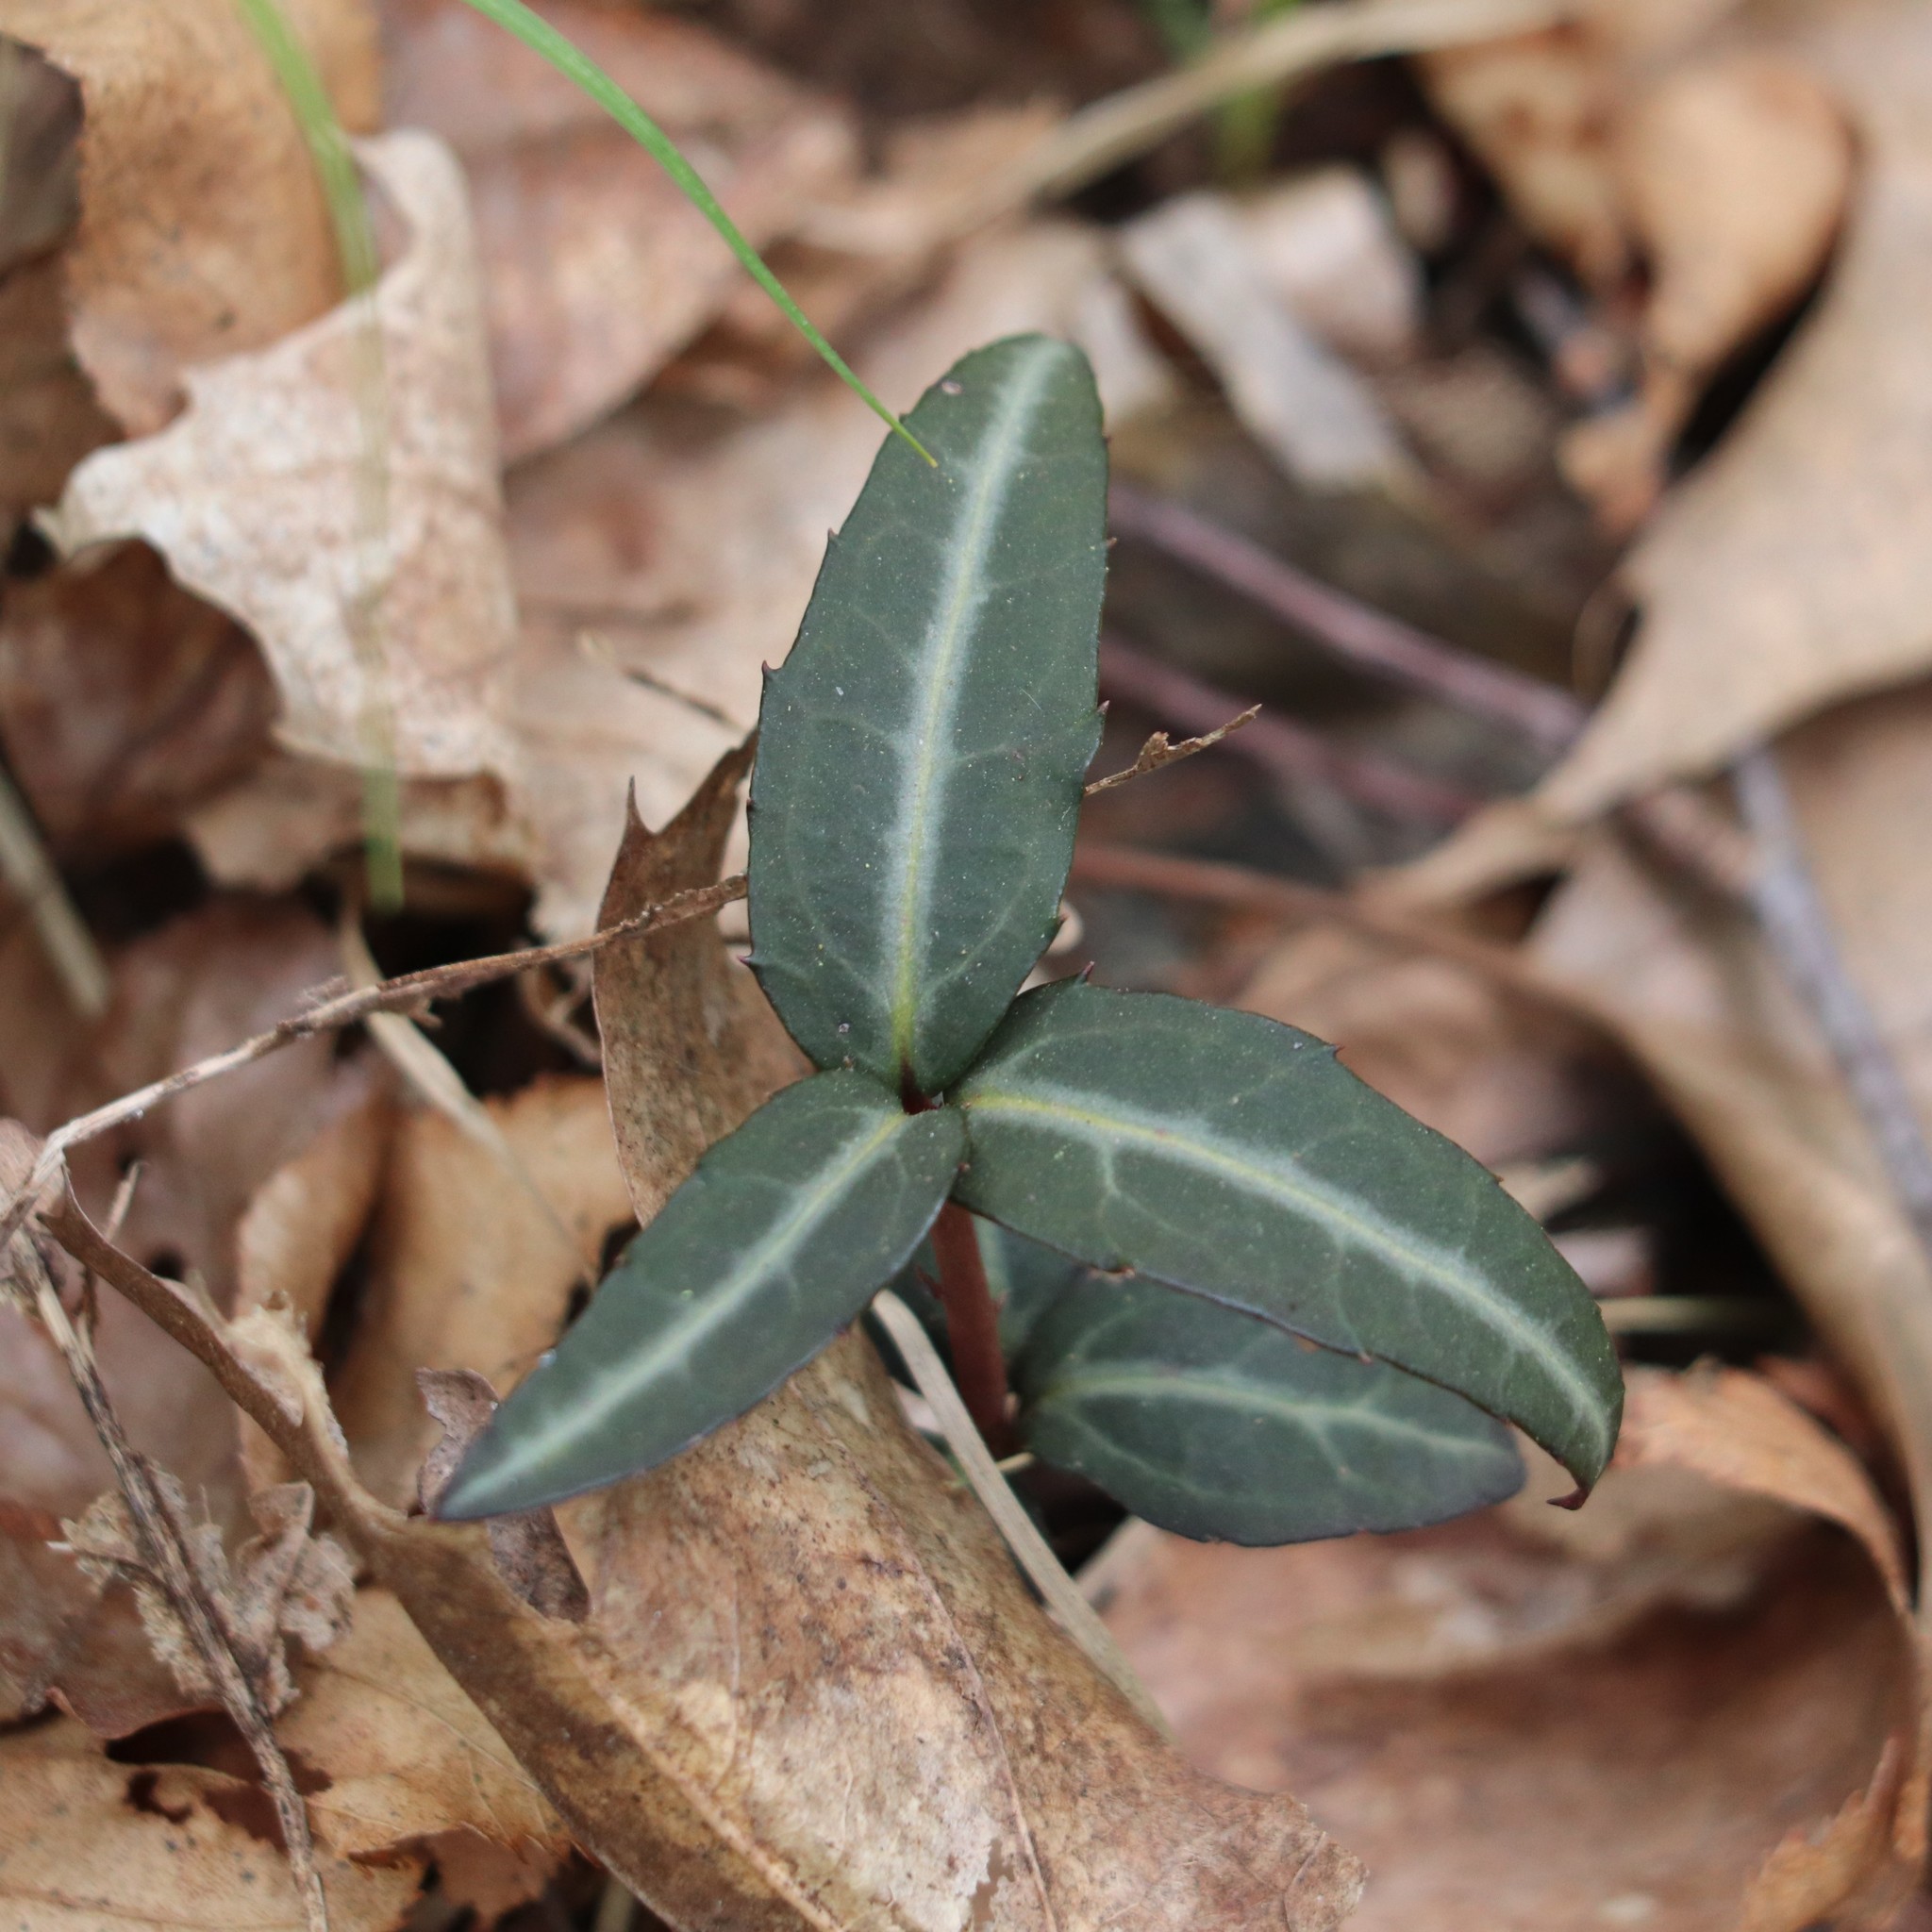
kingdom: Plantae
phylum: Tracheophyta
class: Magnoliopsida
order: Ericales
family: Ericaceae
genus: Chimaphila
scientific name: Chimaphila maculata
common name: Spotted pipsissewa
